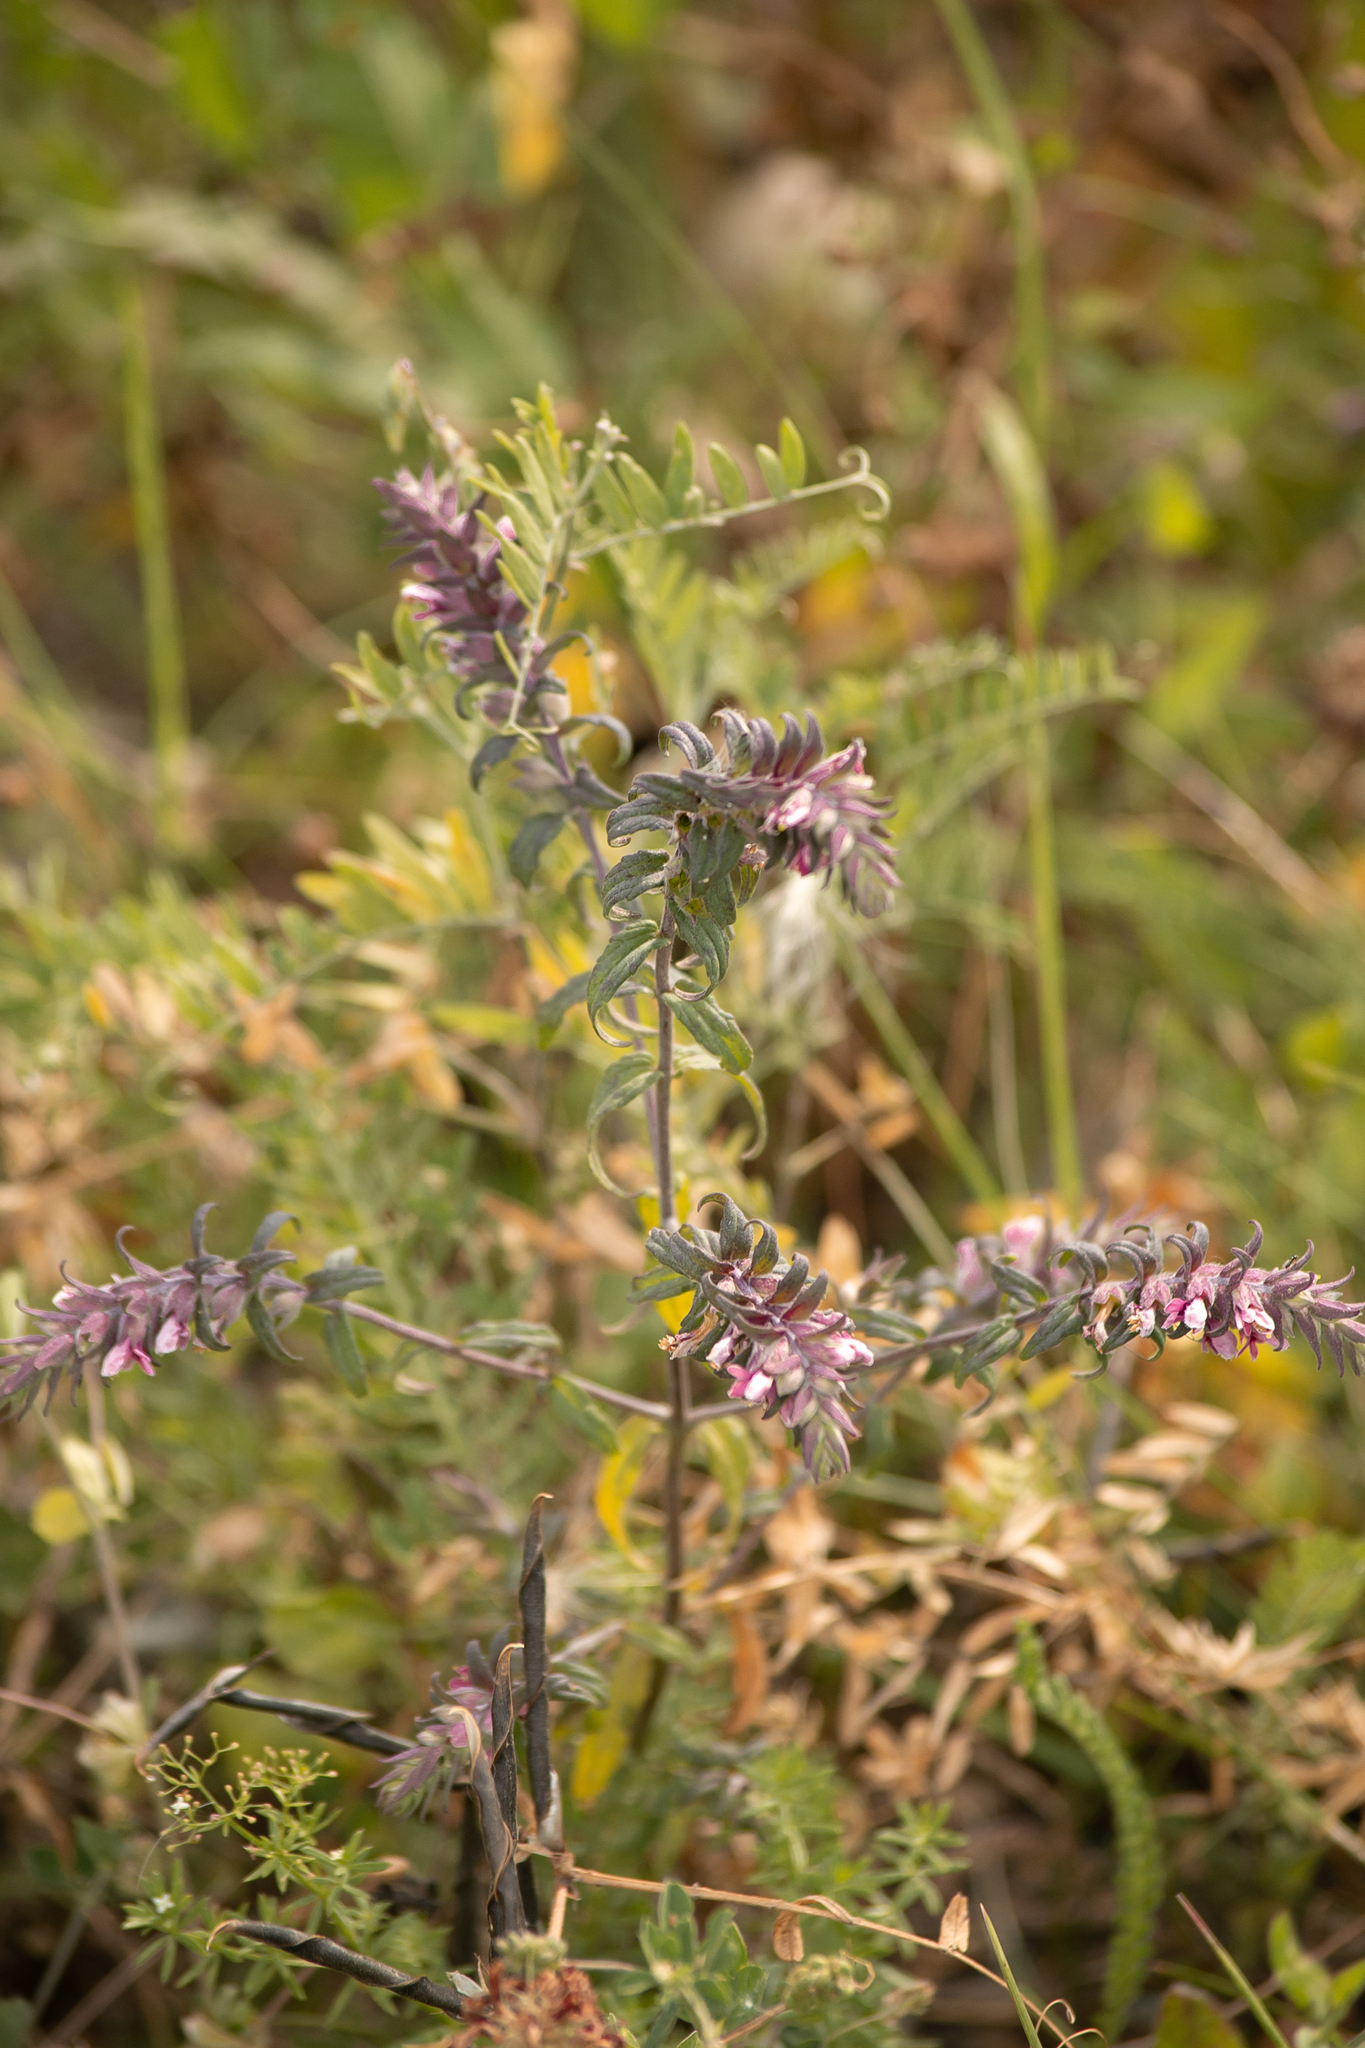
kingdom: Plantae
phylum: Tracheophyta
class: Magnoliopsida
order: Lamiales
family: Orobanchaceae
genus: Odontites
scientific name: Odontites vulgaris
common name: Broomrape
